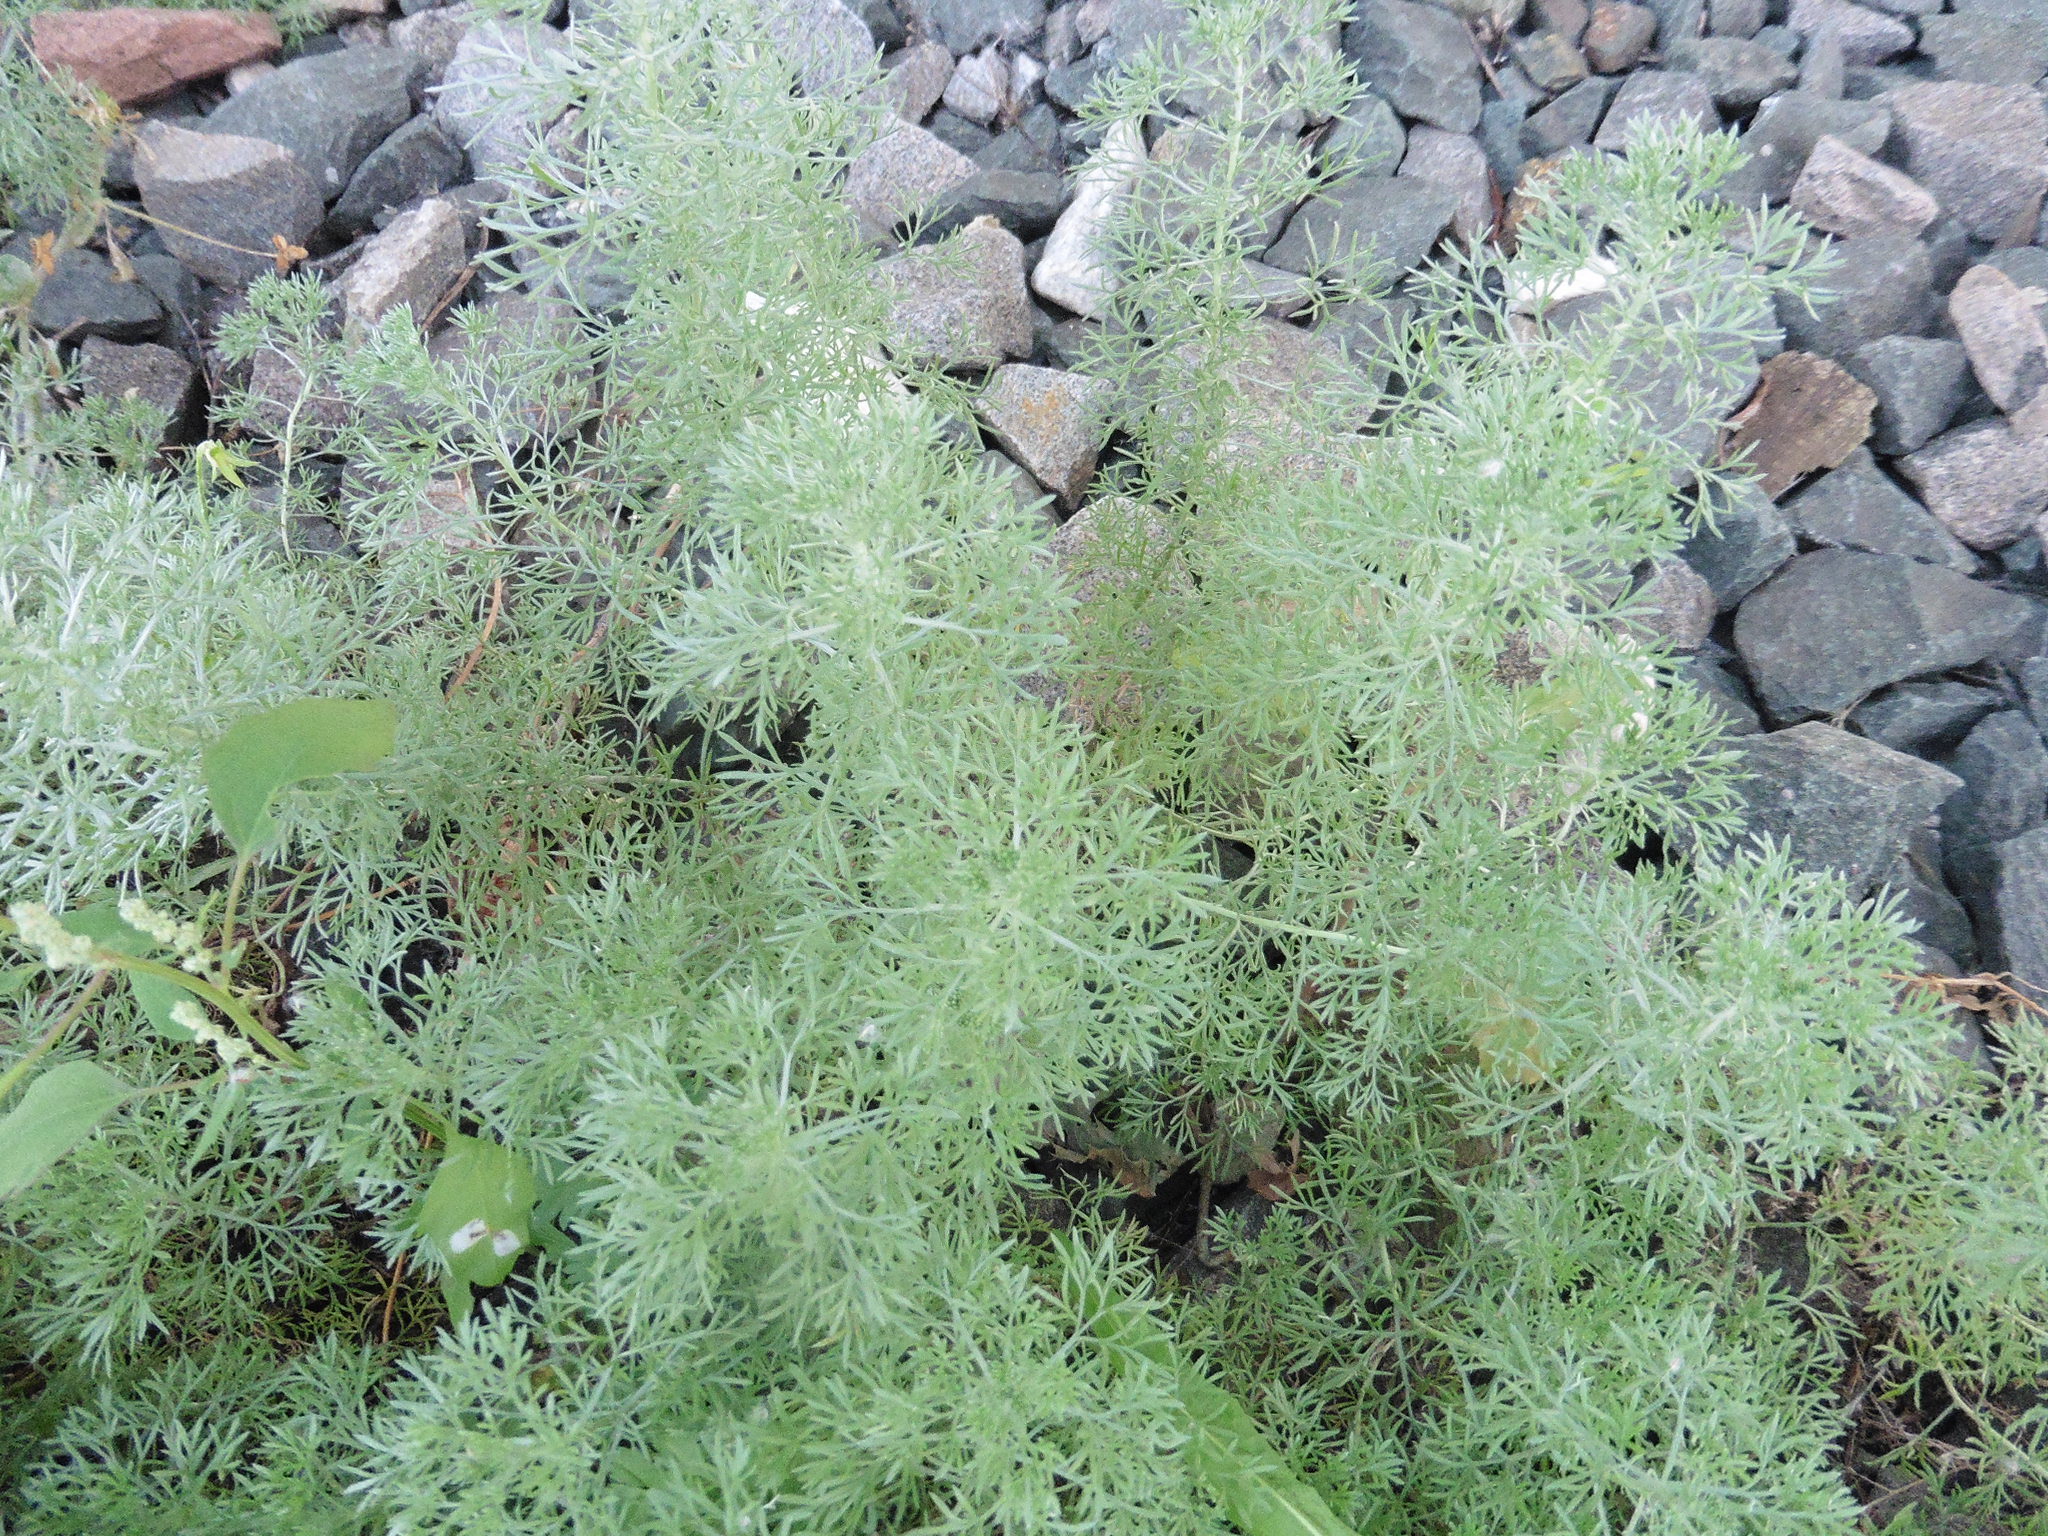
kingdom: Plantae
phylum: Tracheophyta
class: Magnoliopsida
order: Asterales
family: Asteraceae
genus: Artemisia
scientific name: Artemisia austriaca
